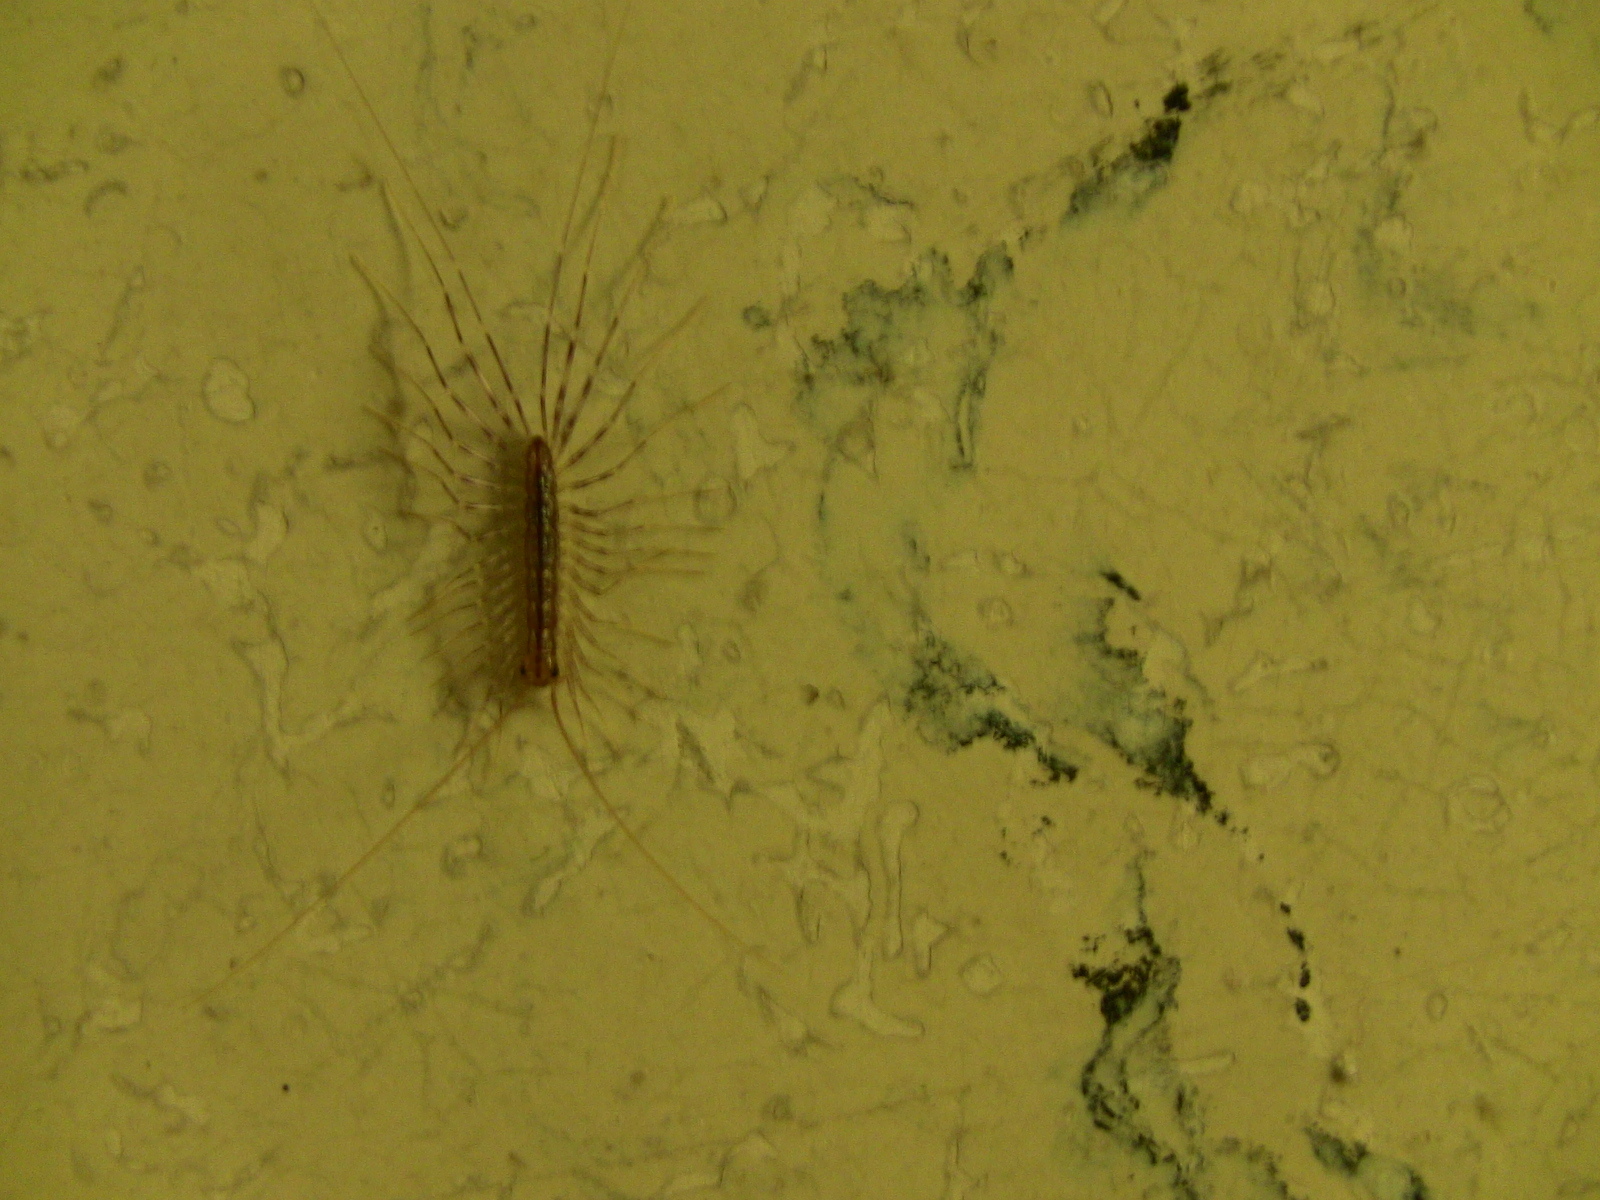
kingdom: Animalia
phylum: Arthropoda
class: Chilopoda
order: Scutigeromorpha
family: Scutigeridae
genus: Scutigera
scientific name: Scutigera coleoptrata
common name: House centipede
